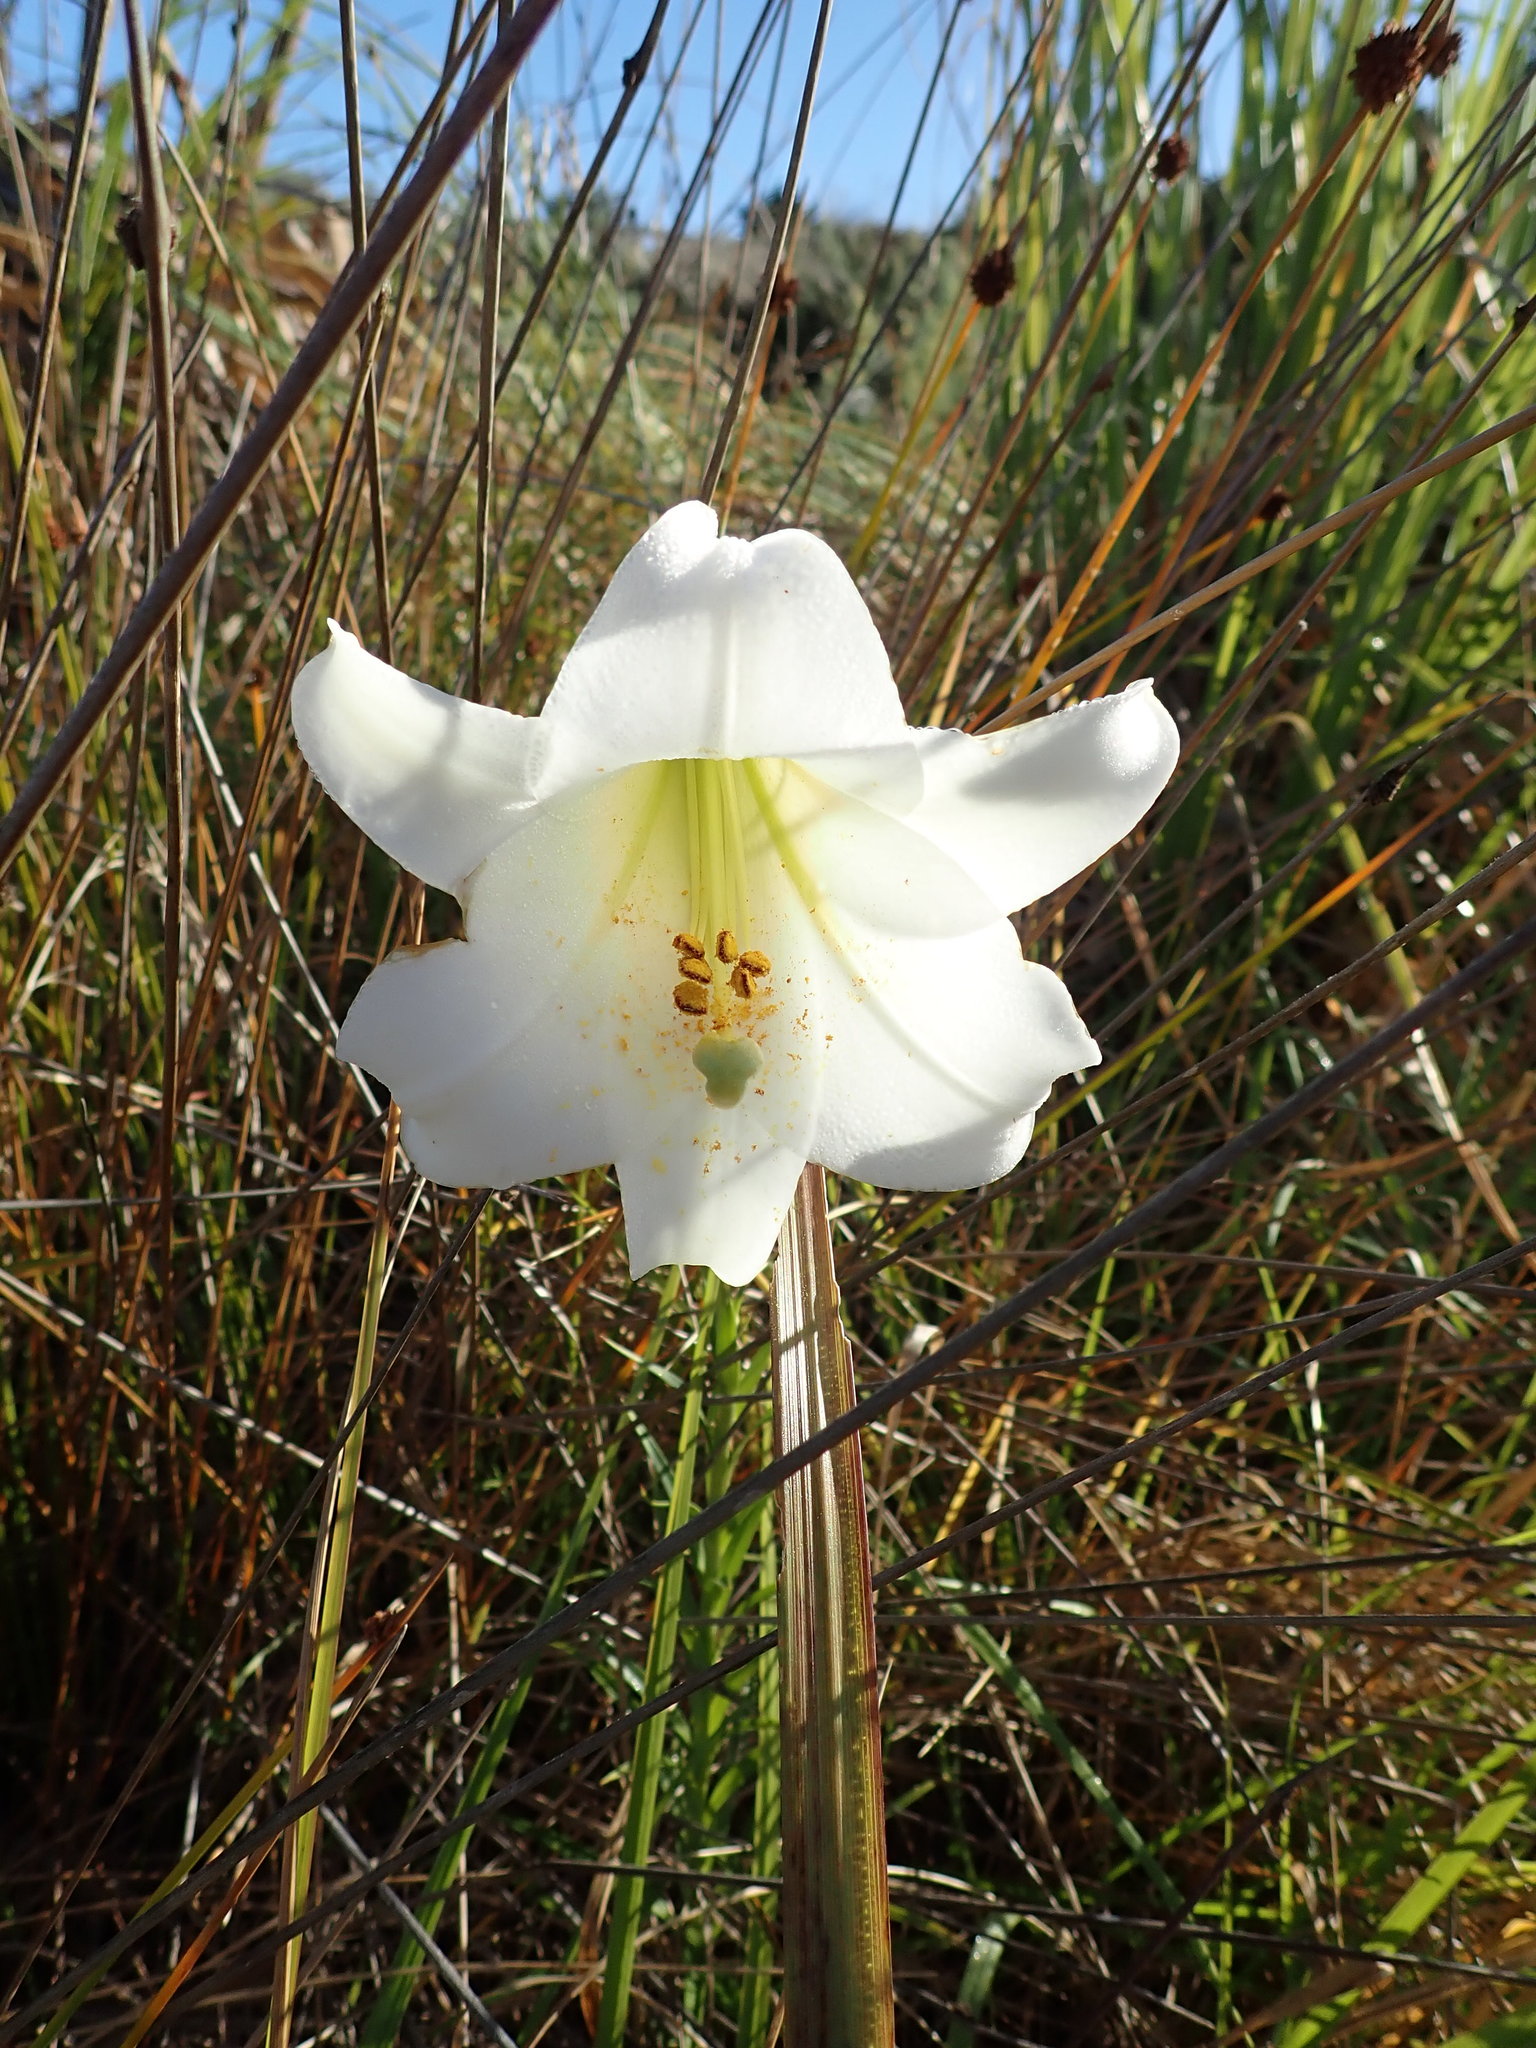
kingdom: Plantae
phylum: Tracheophyta
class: Liliopsida
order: Liliales
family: Liliaceae
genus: Lilium
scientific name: Lilium formosanum
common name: Formosa lily
